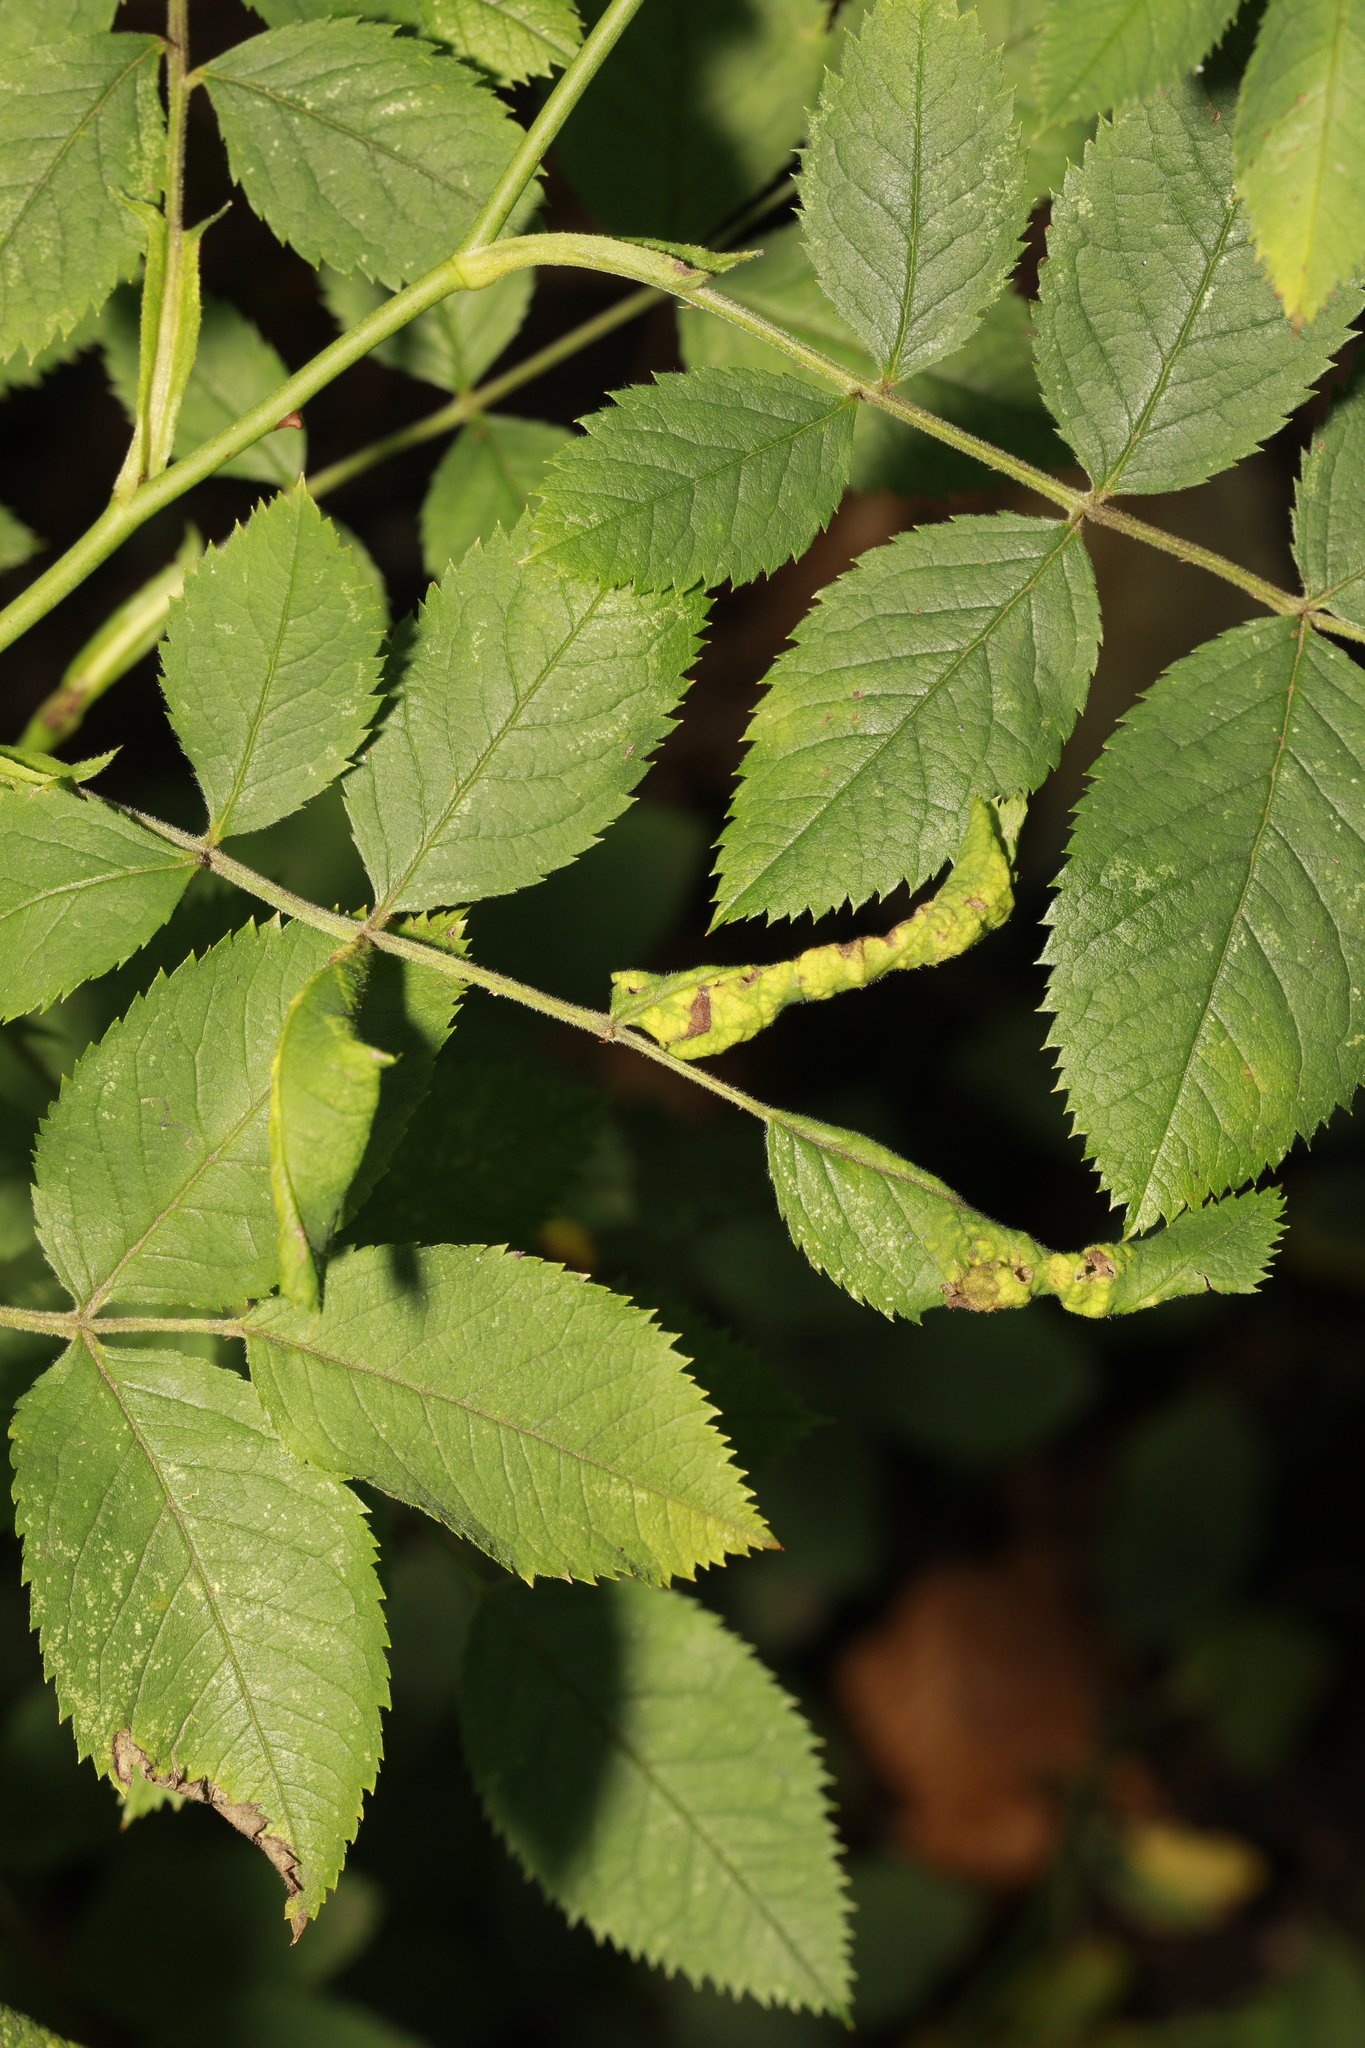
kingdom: Animalia
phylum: Arthropoda
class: Insecta
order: Hymenoptera
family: Tenthredinidae
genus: Blennocampa
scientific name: Blennocampa phyllocolpa
